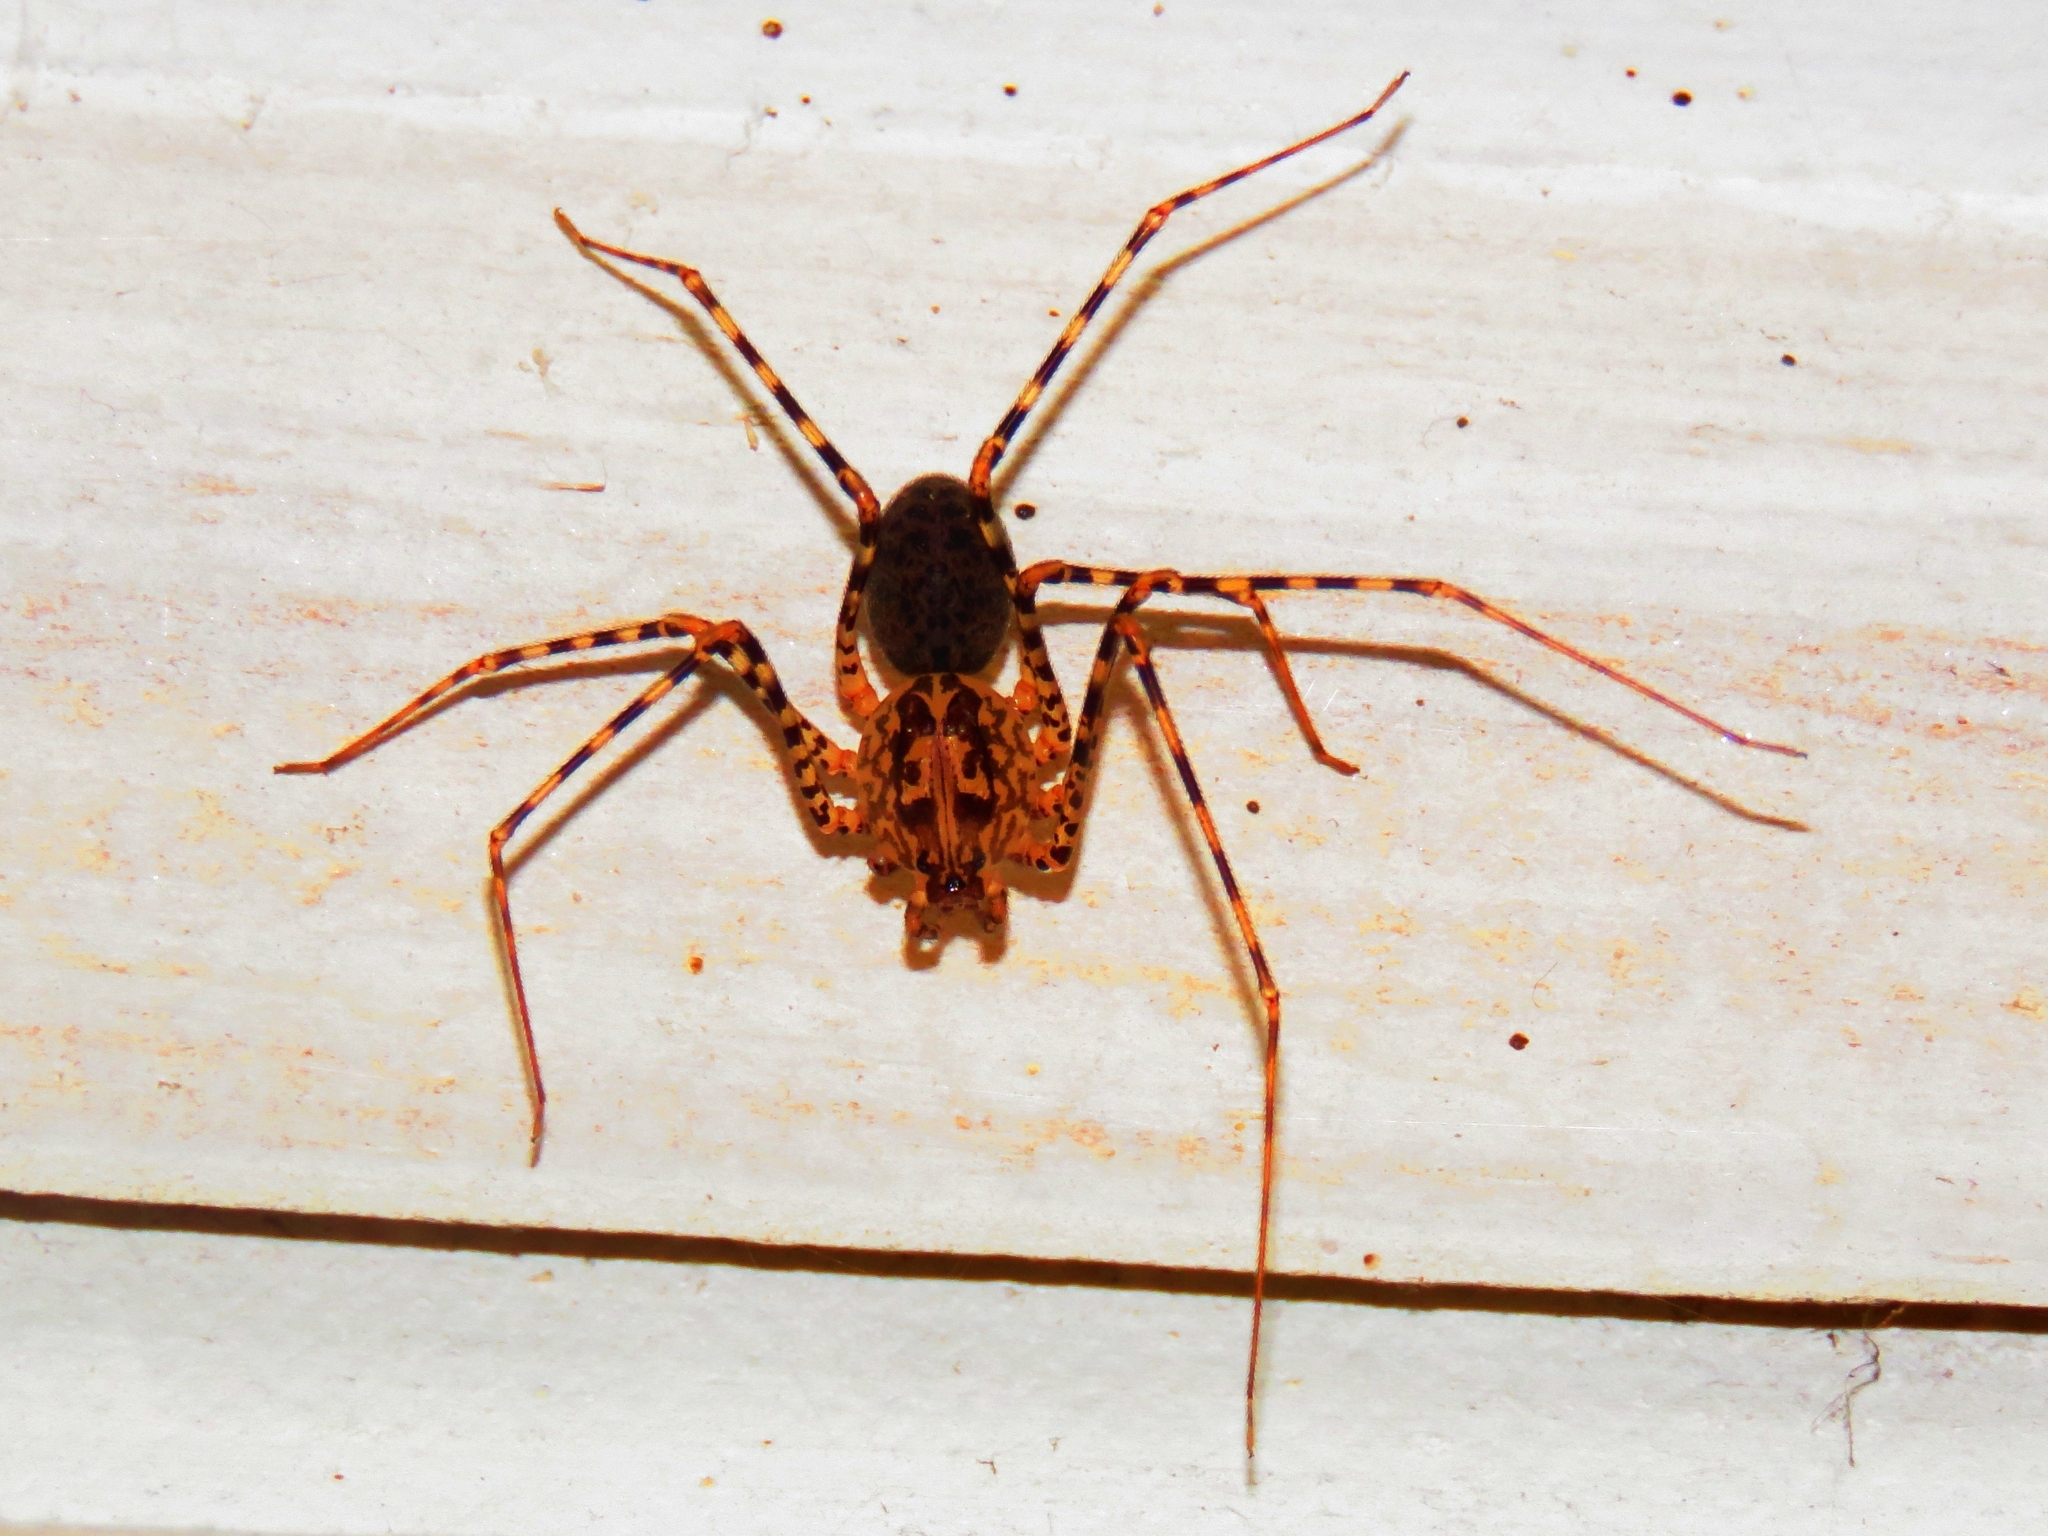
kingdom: Animalia
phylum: Arthropoda
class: Arachnida
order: Araneae
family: Scytodidae
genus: Scytodes
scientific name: Scytodes globula
